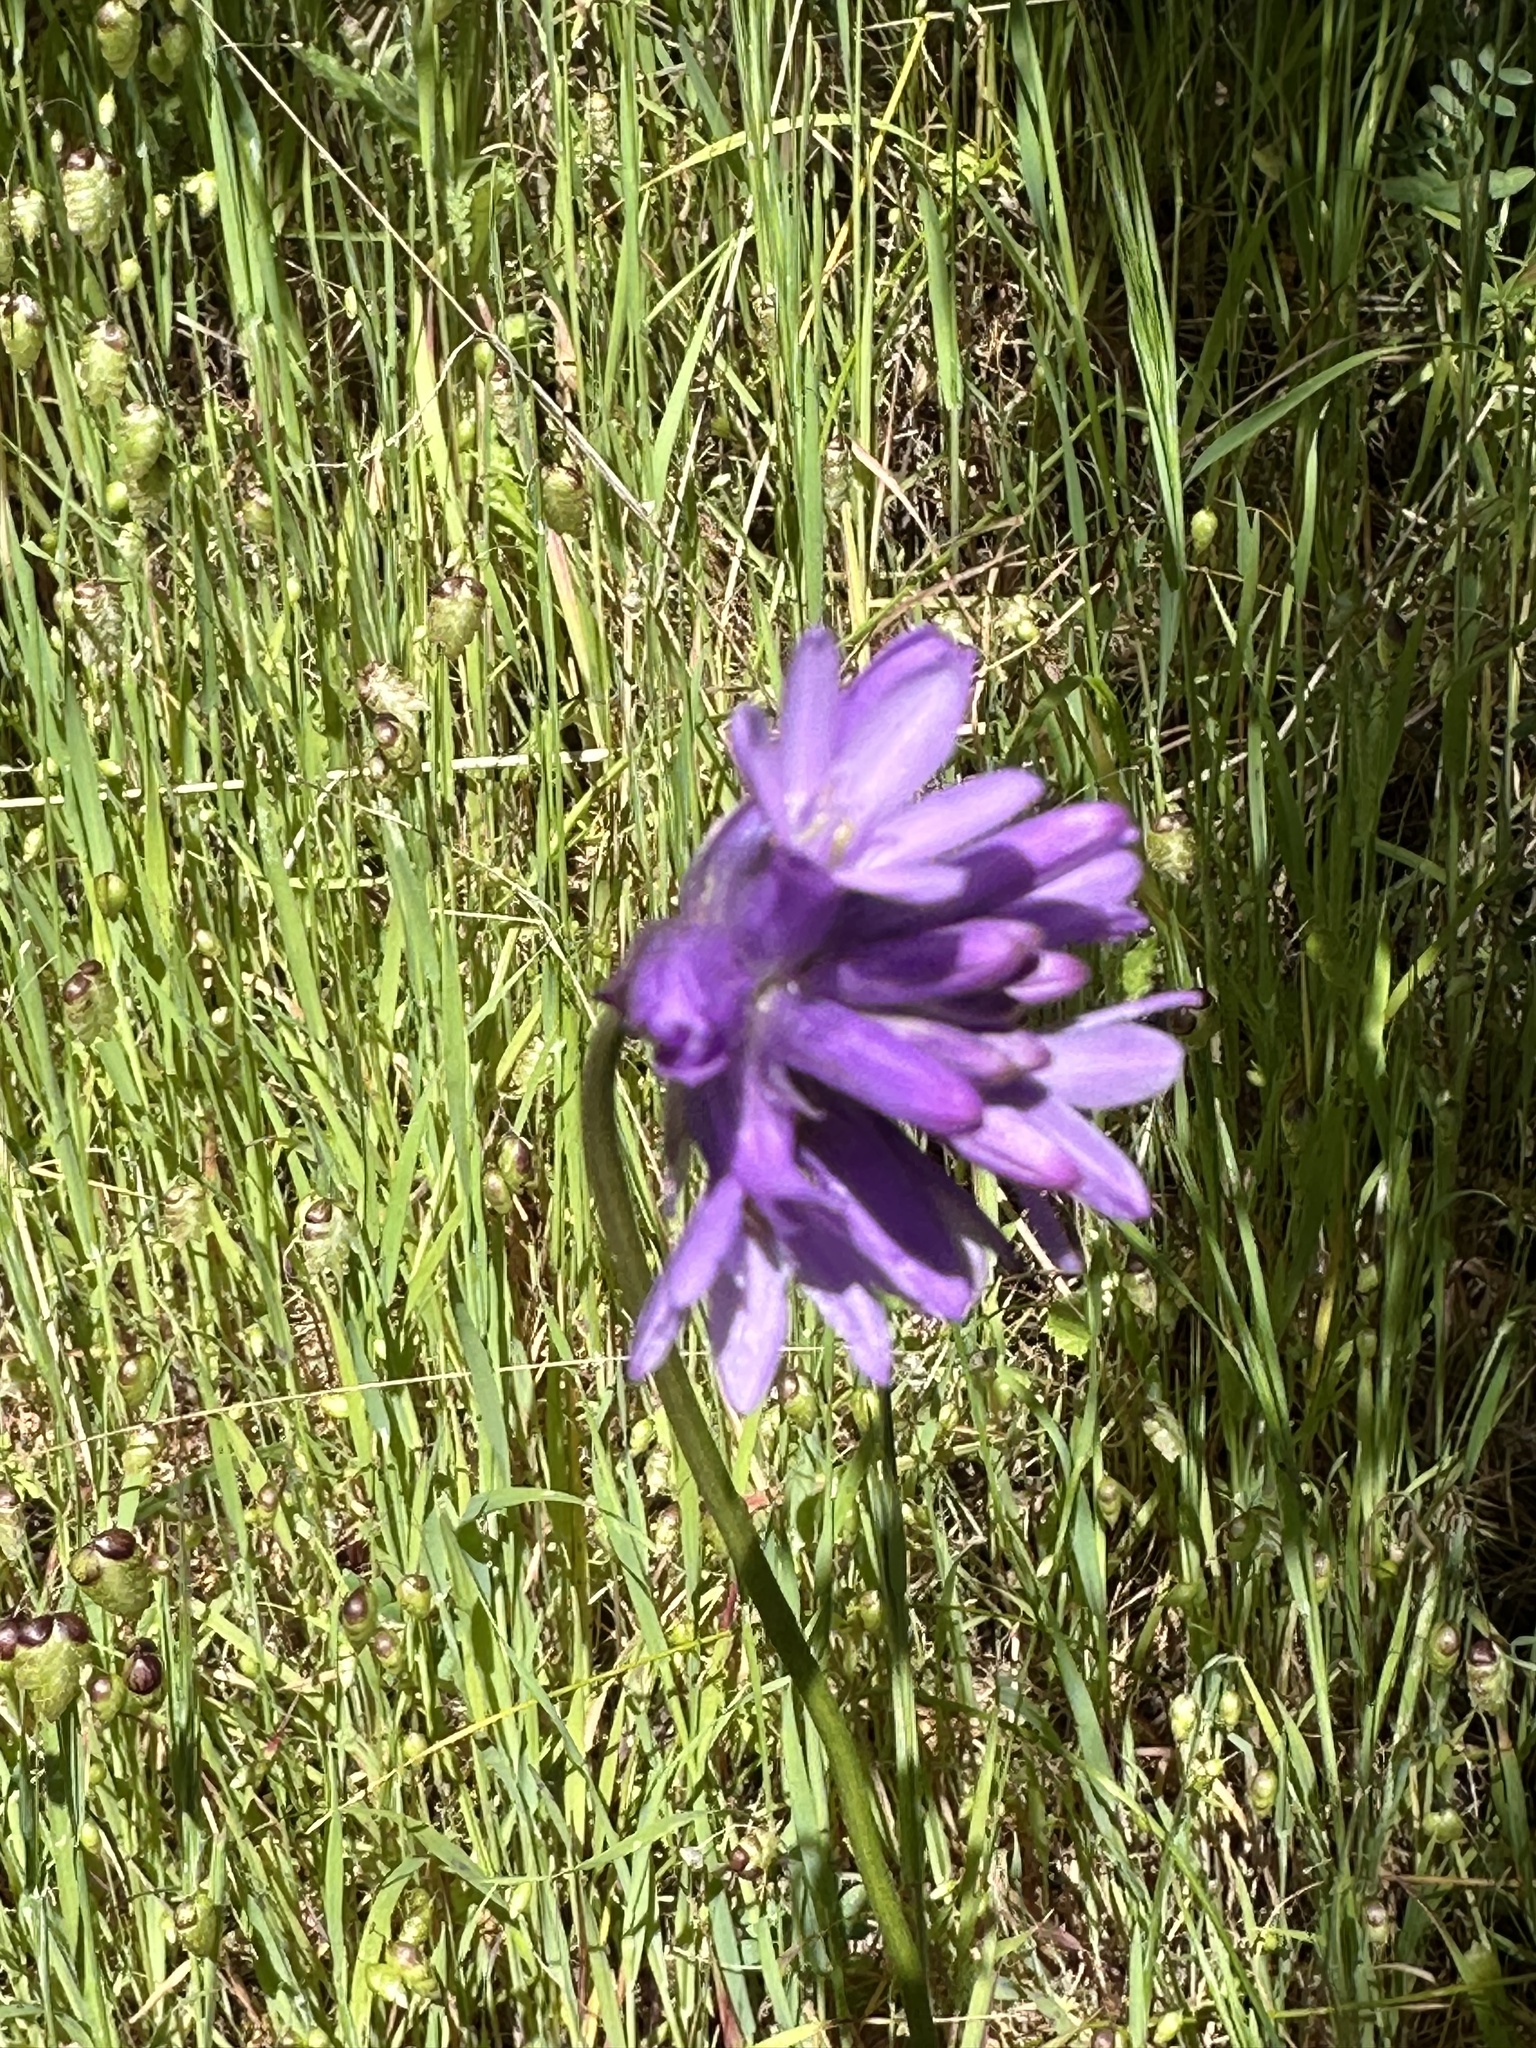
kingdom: Plantae
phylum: Tracheophyta
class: Liliopsida
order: Asparagales
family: Asparagaceae
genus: Dichelostemma
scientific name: Dichelostemma congestum
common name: Fork-tooth ookow
